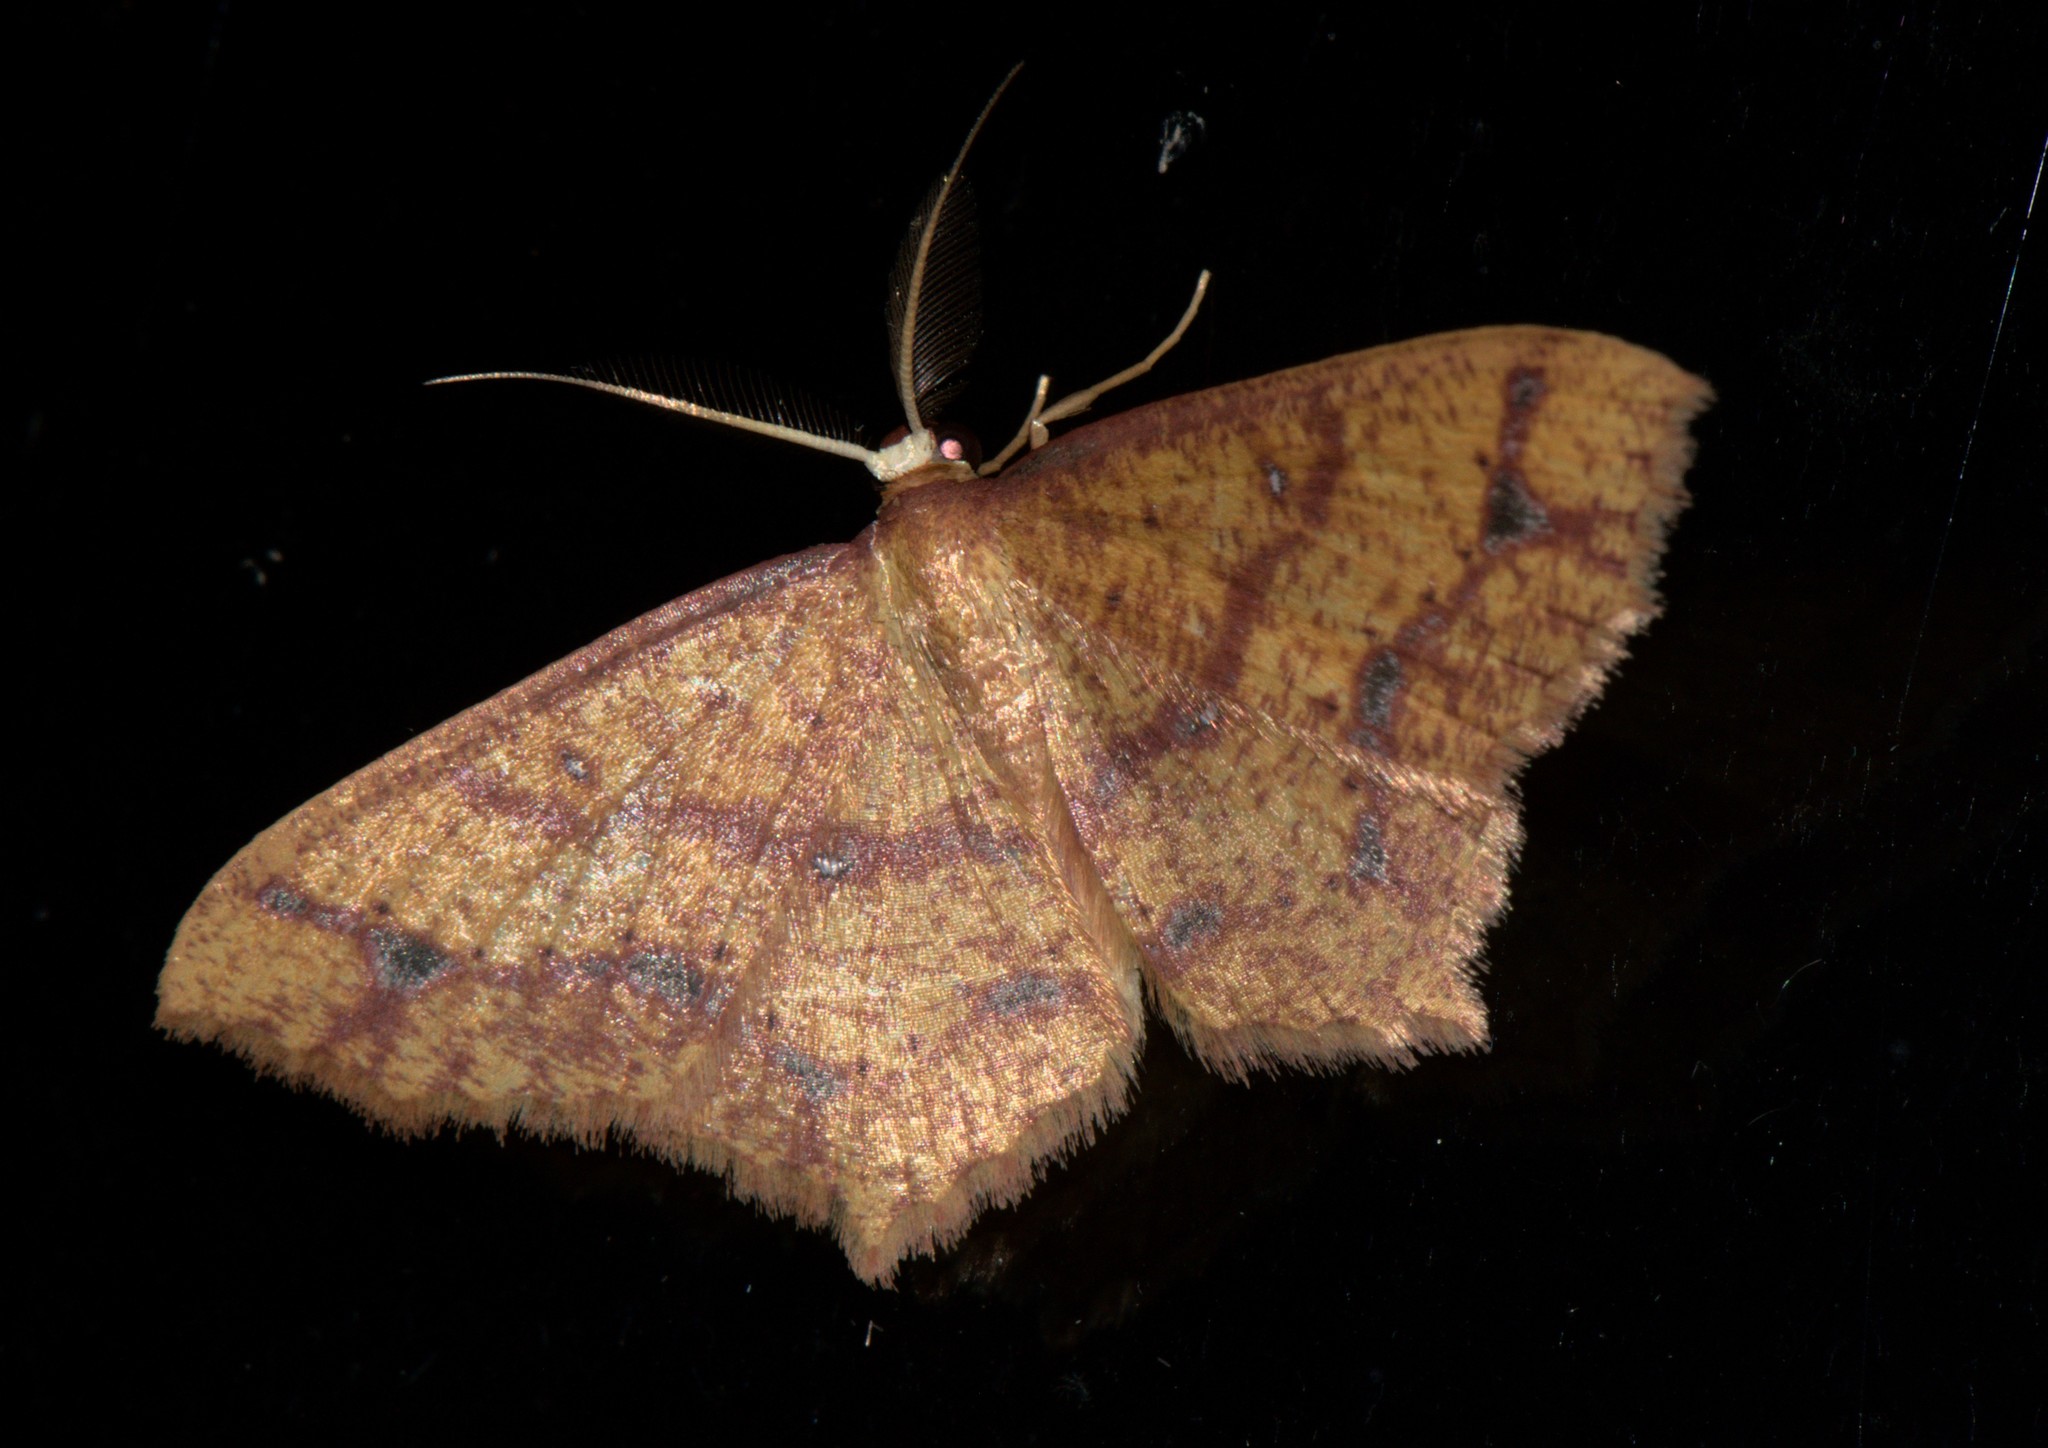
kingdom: Animalia
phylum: Arthropoda
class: Insecta
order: Lepidoptera
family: Geometridae
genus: Synegiodes
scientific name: Synegiodes hyriaria
